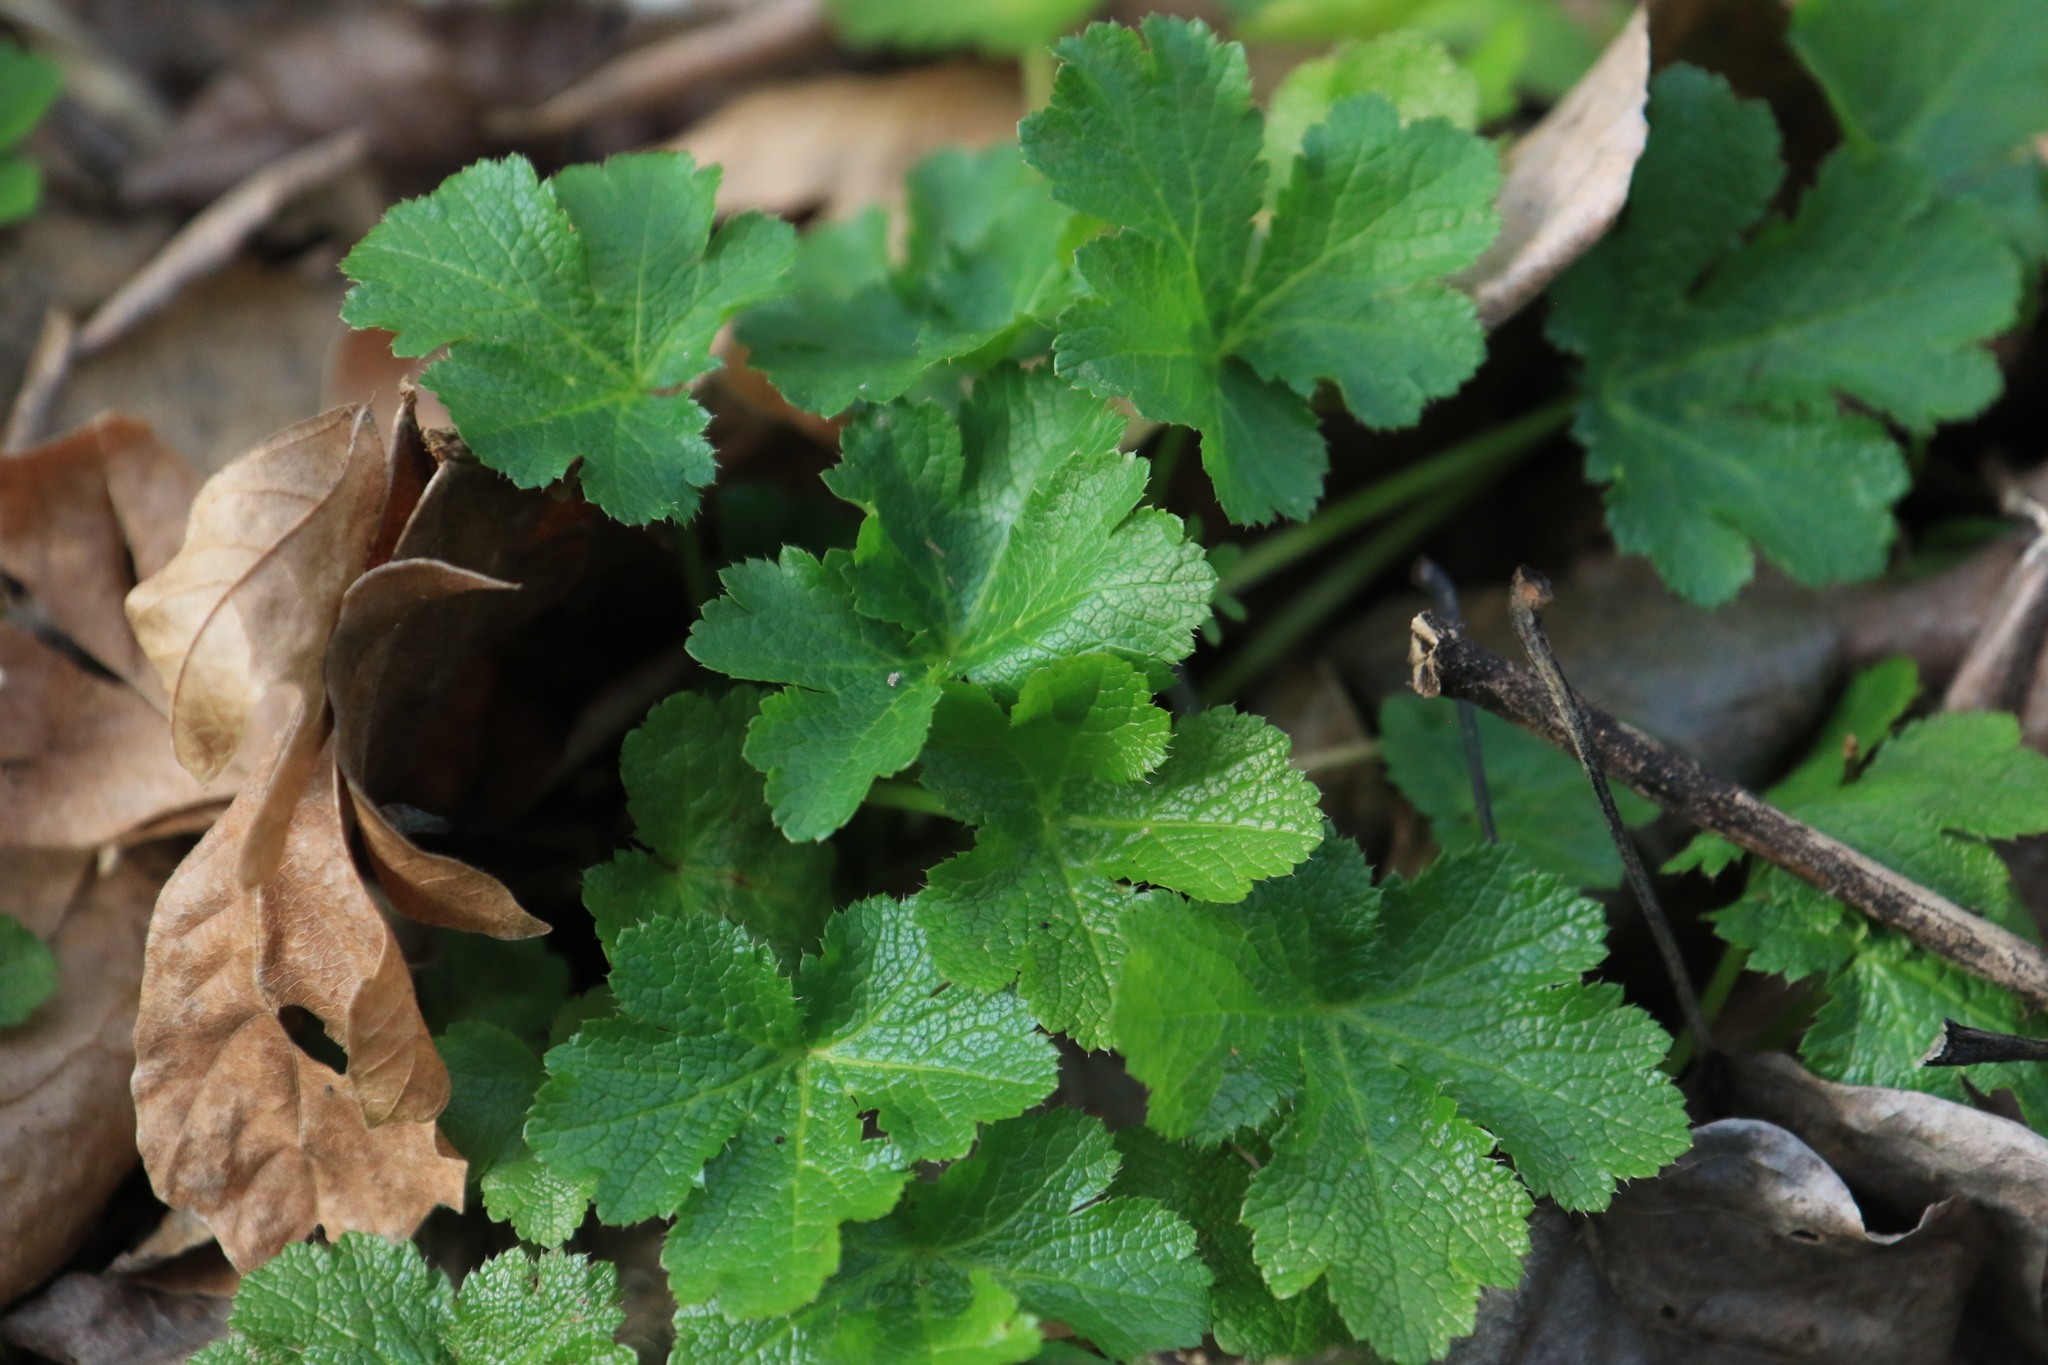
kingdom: Plantae
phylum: Tracheophyta
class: Magnoliopsida
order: Apiales
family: Apiaceae
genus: Sanicula
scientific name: Sanicula crassicaulis
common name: Western snakeroot
